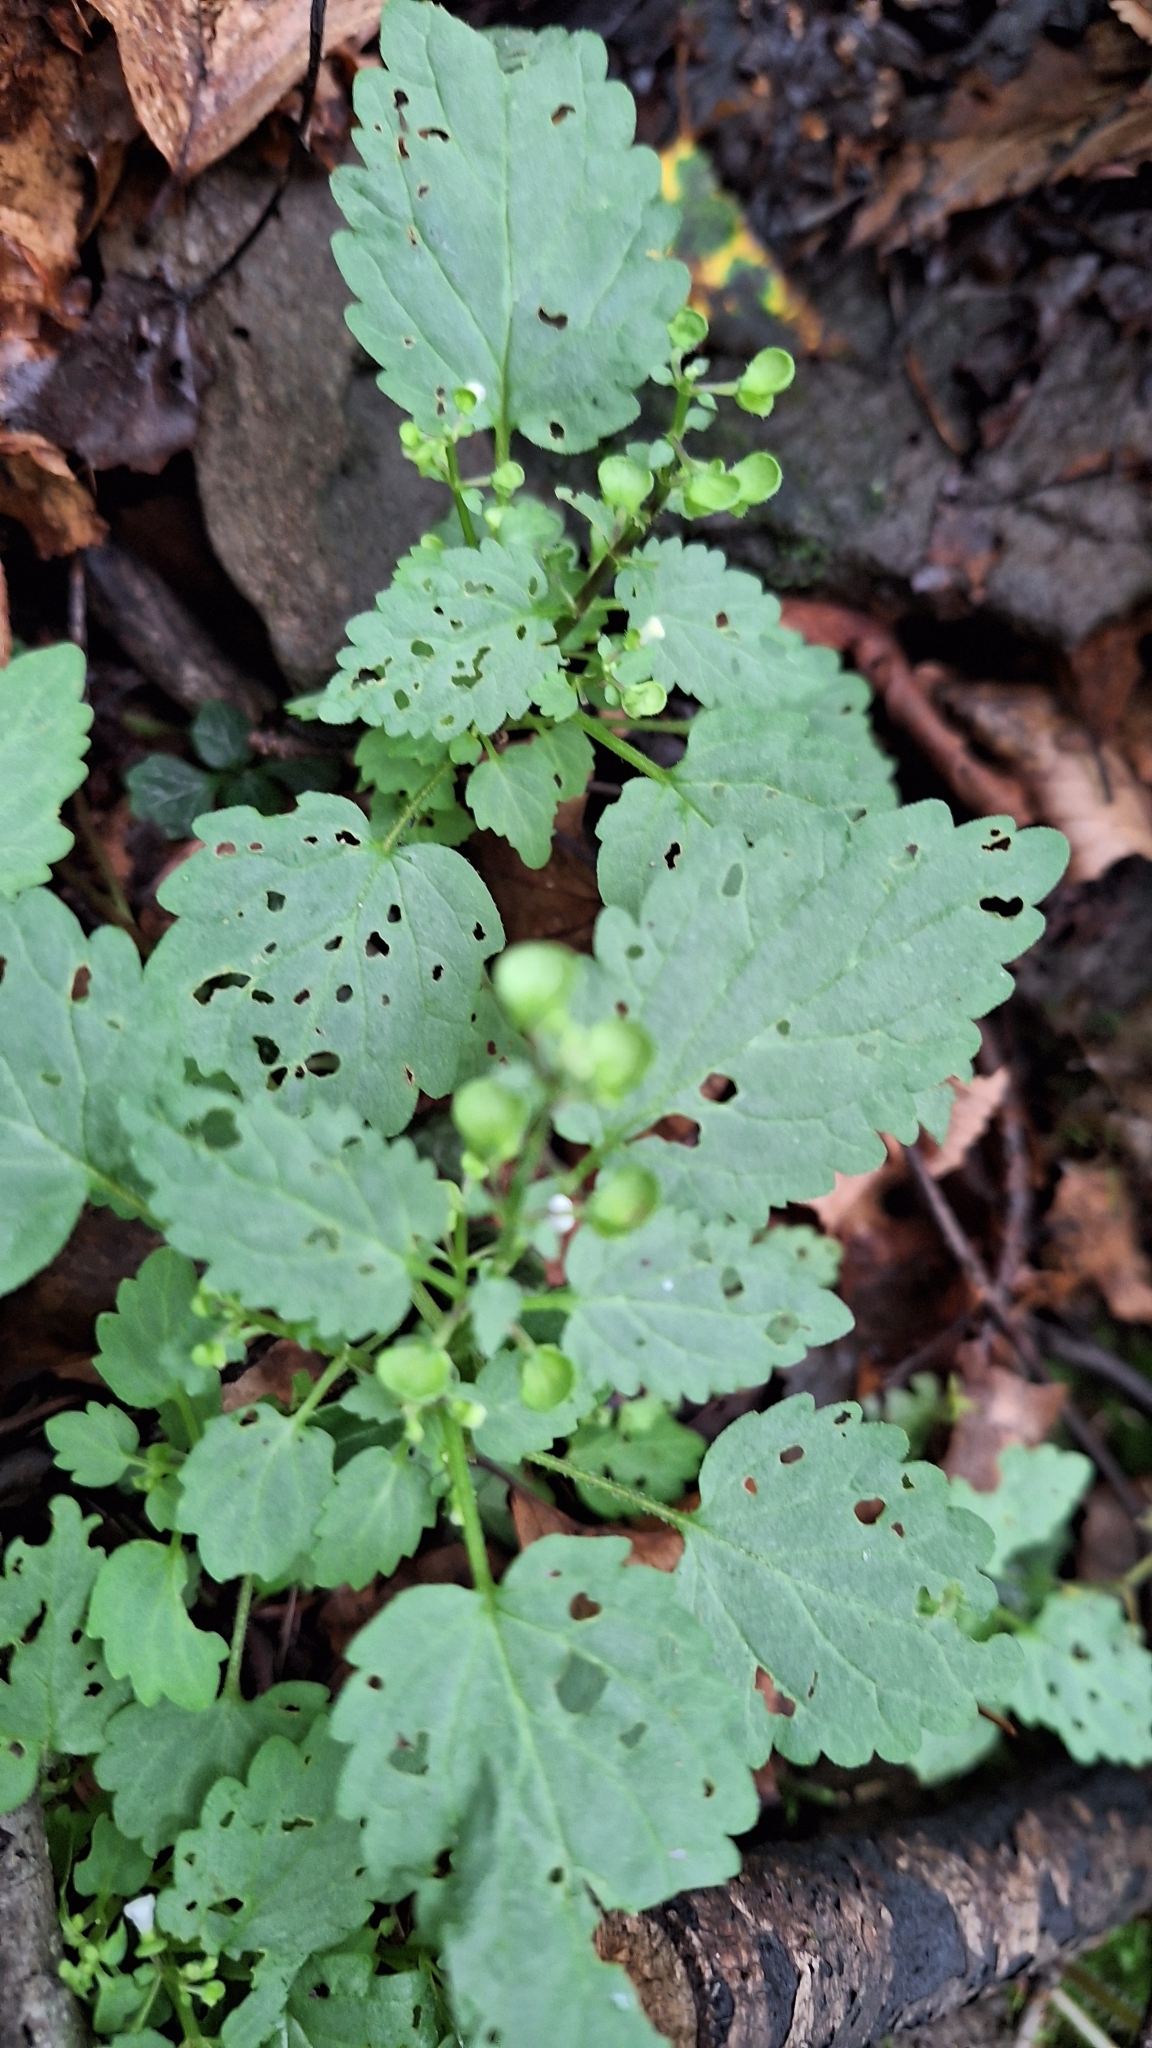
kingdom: Plantae
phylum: Tracheophyta
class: Magnoliopsida
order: Lamiales
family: Lamiaceae
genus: Scutellaria
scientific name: Scutellaria pekinensis
